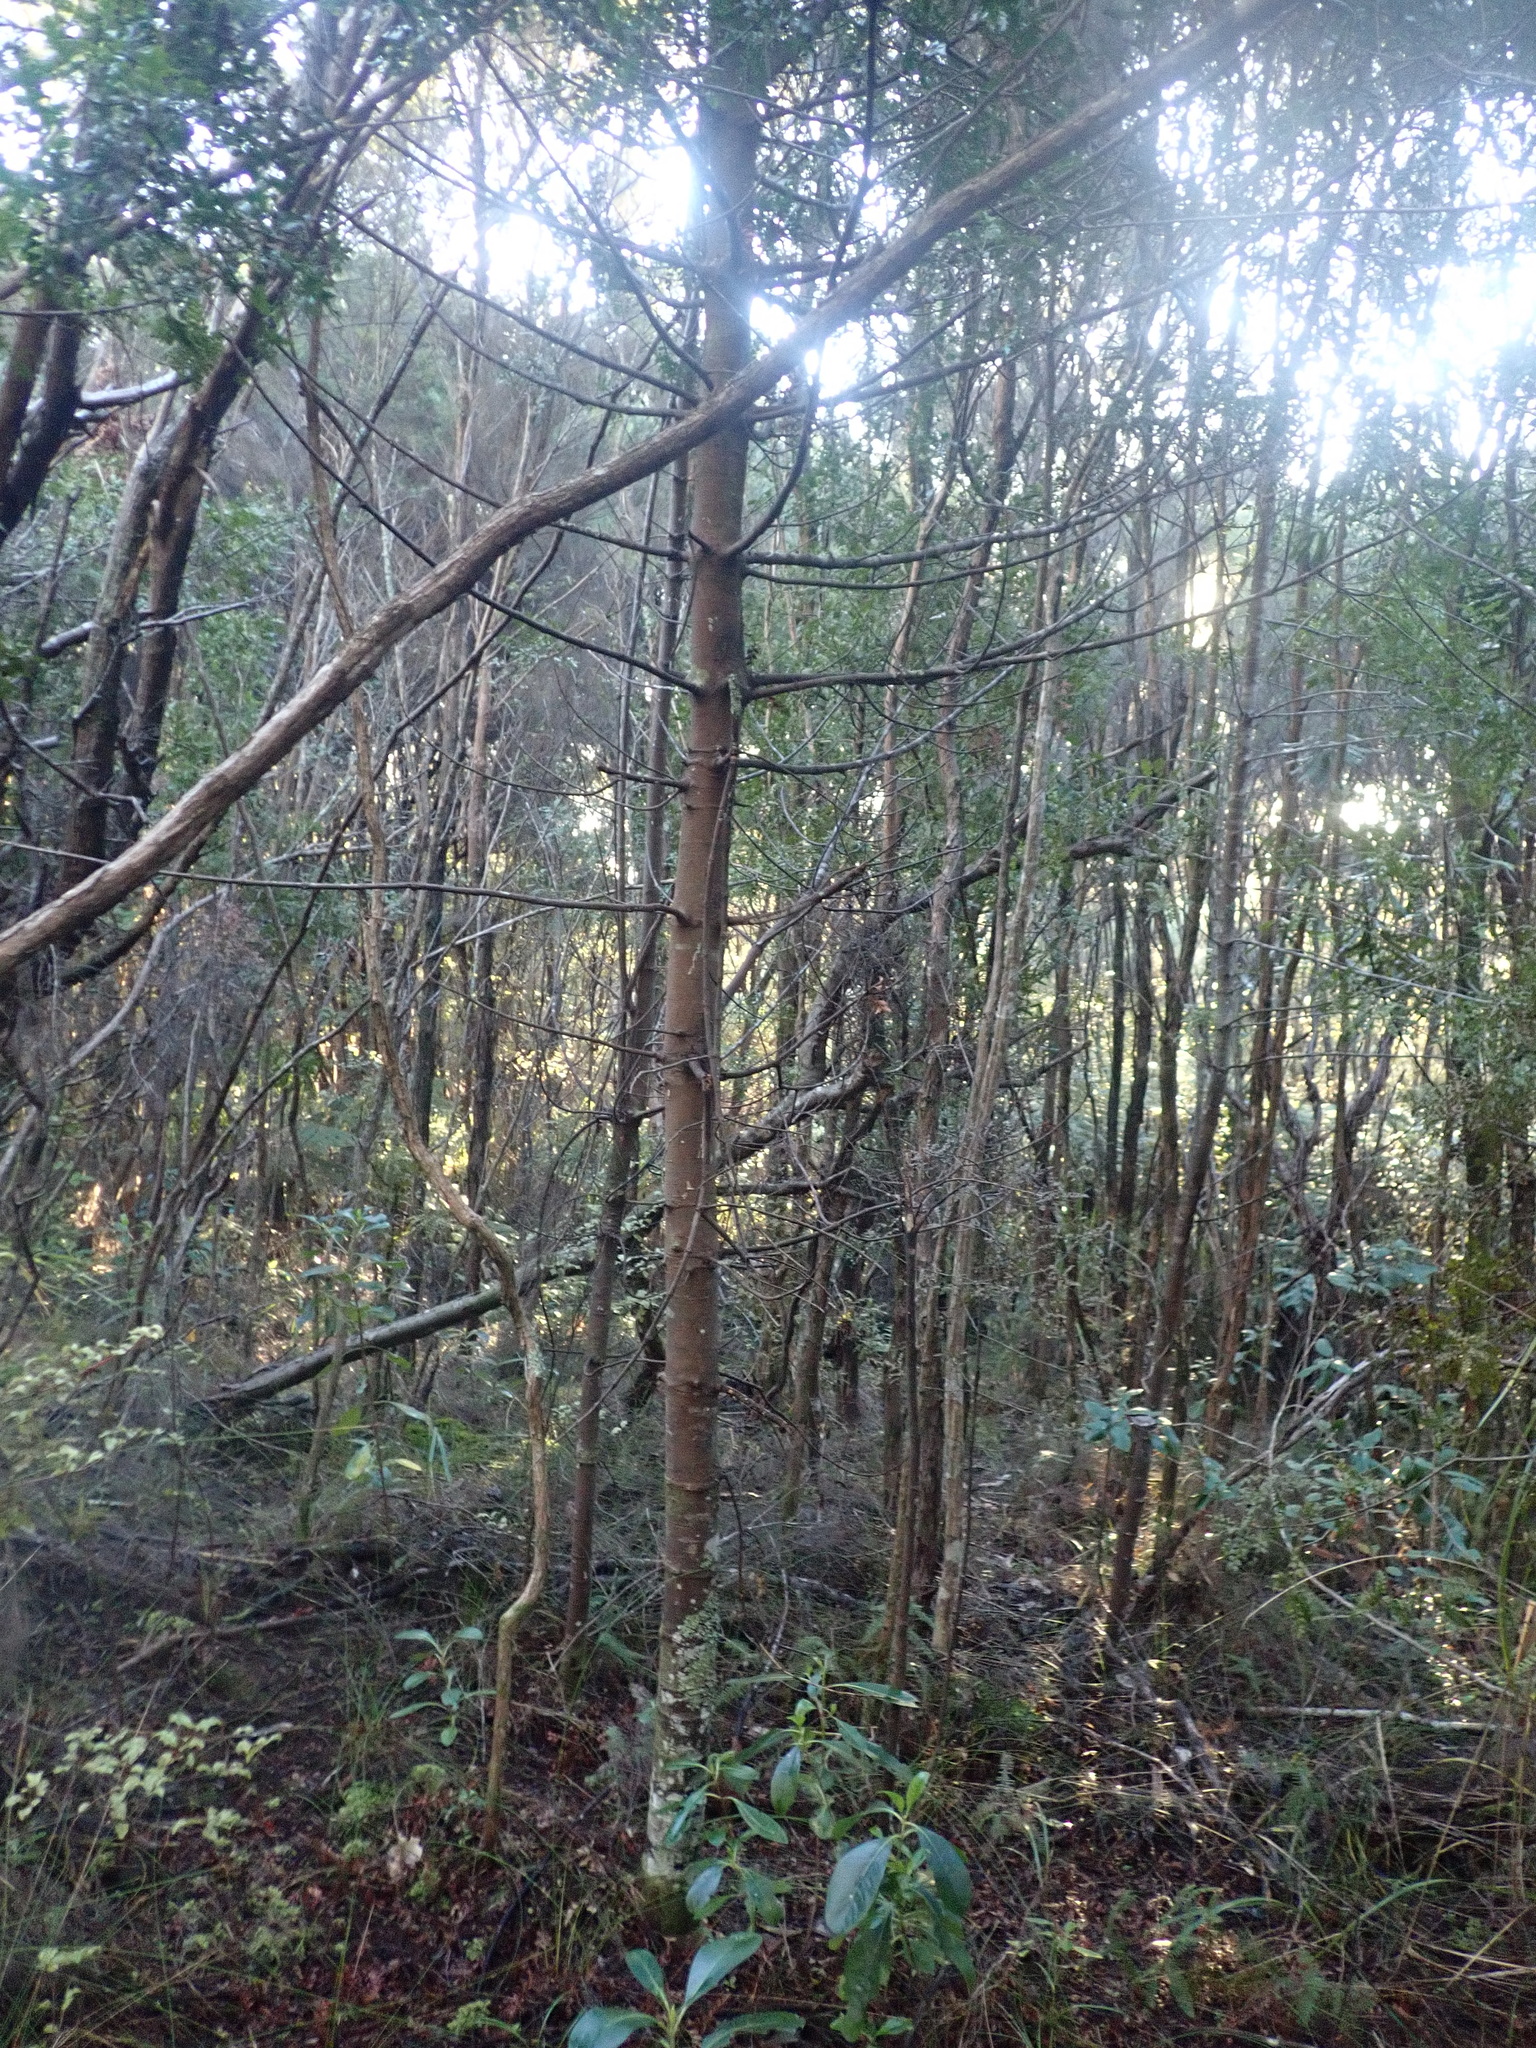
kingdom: Plantae
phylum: Tracheophyta
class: Pinopsida
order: Pinales
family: Phyllocladaceae
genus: Phyllocladus
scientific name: Phyllocladus trichomanoides
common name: Celery pine
